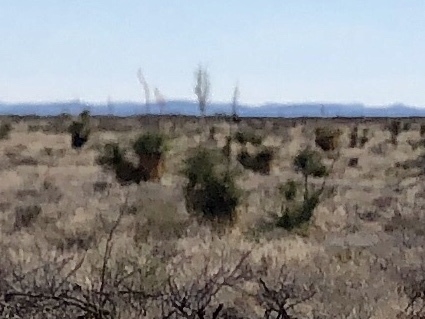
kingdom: Plantae
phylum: Tracheophyta
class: Liliopsida
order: Asparagales
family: Asparagaceae
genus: Yucca
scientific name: Yucca elata
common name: Palmella
